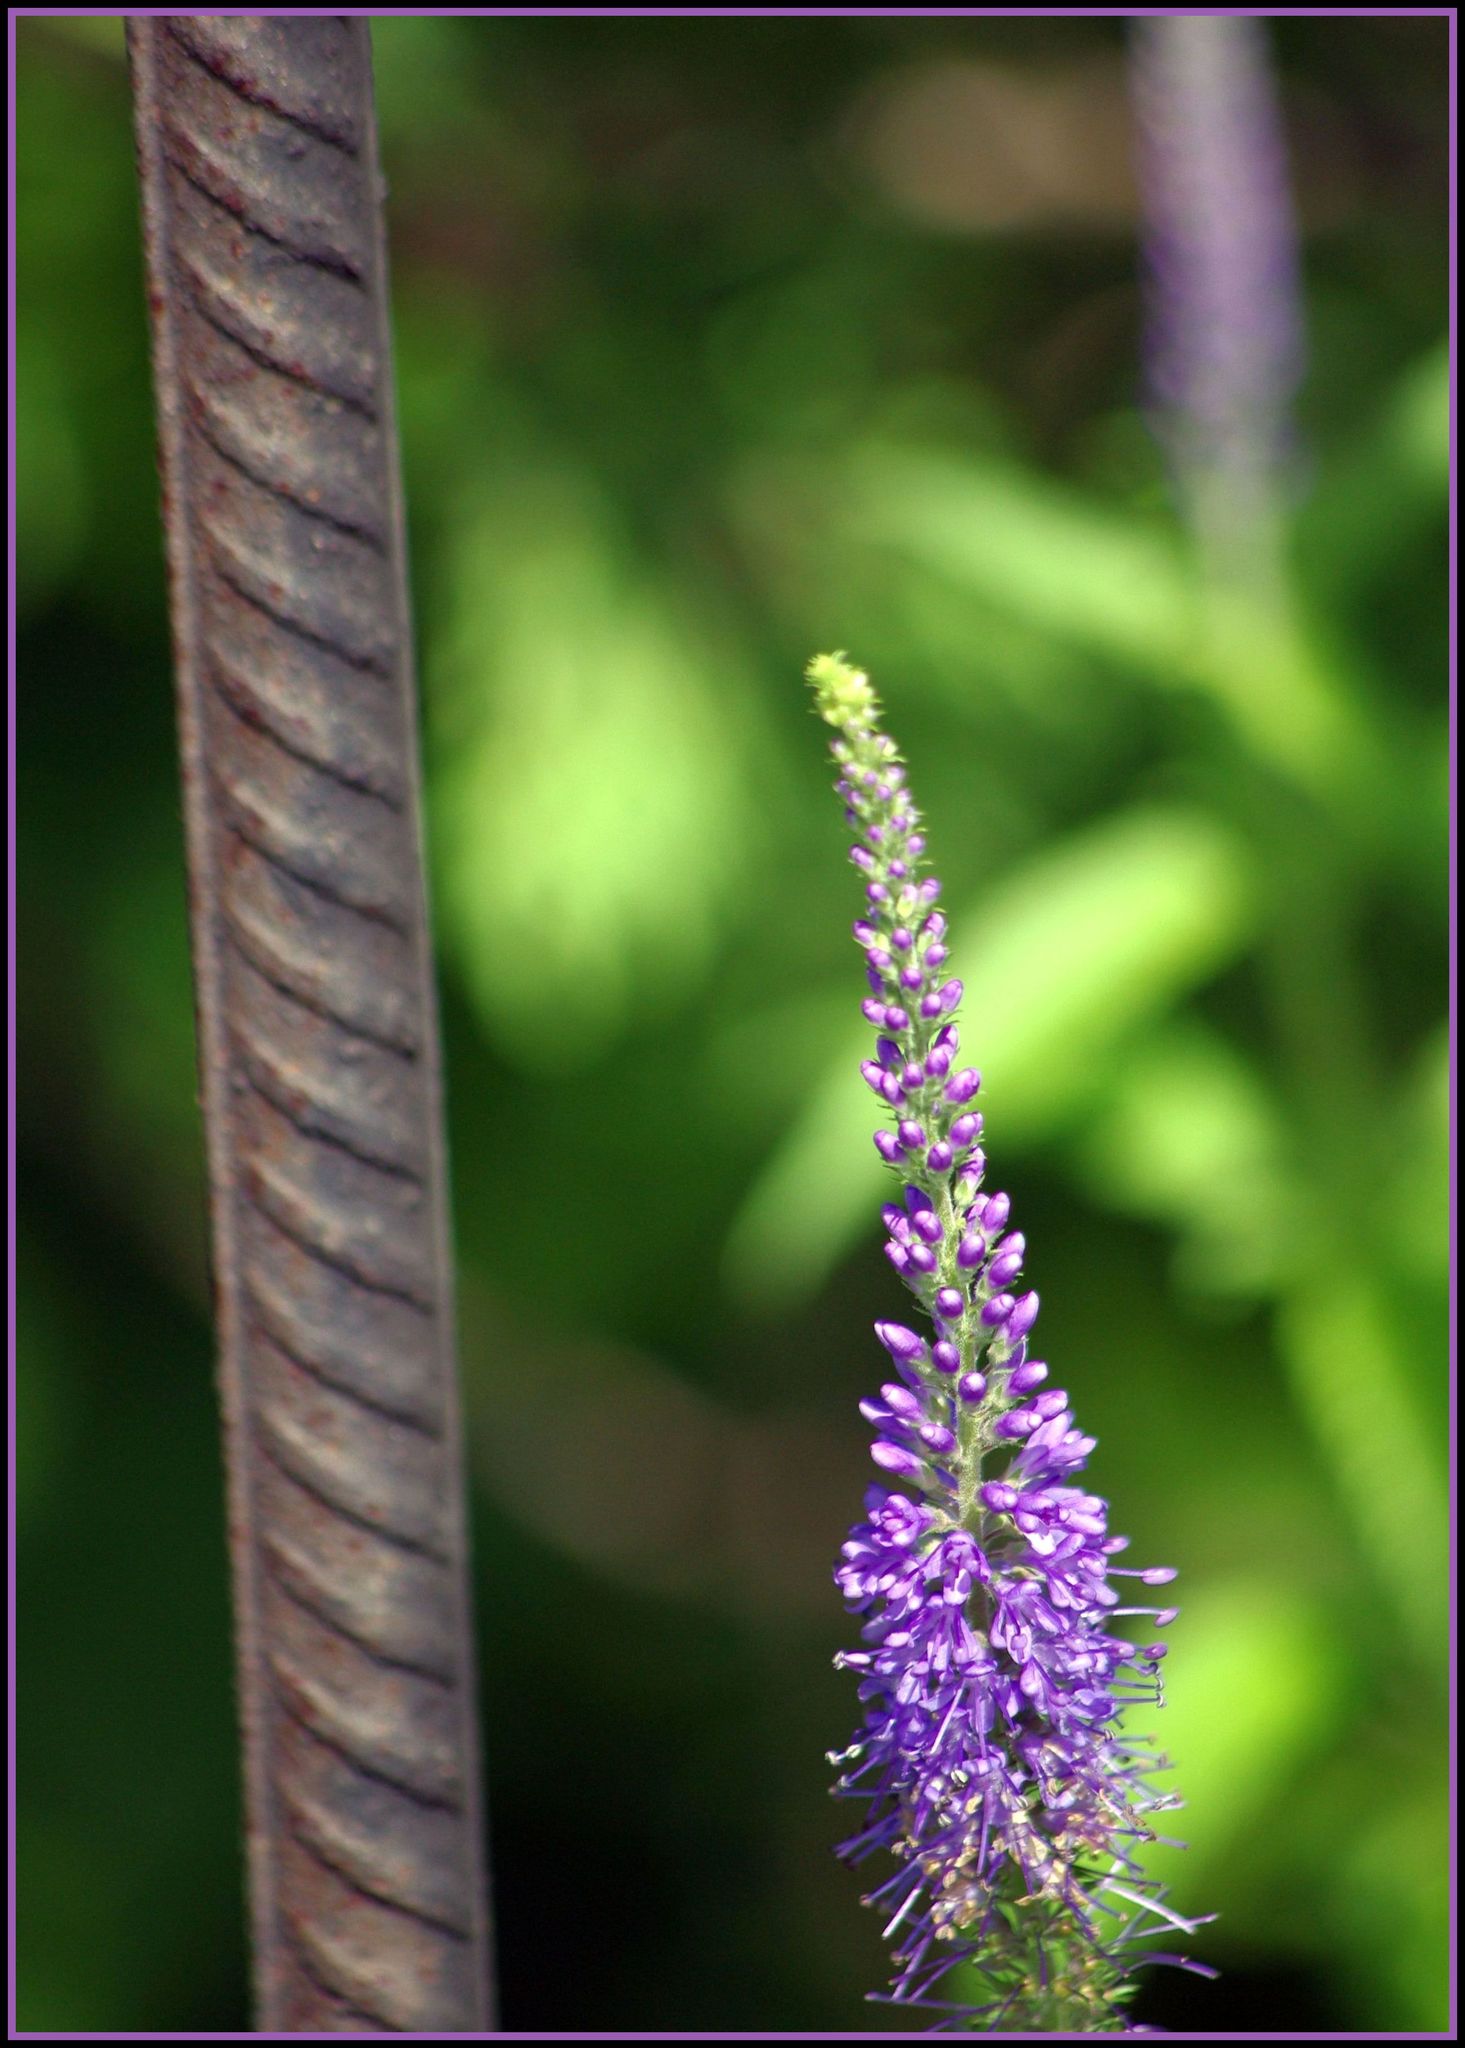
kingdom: Plantae
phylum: Tracheophyta
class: Magnoliopsida
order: Lamiales
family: Plantaginaceae
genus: Veronica
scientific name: Veronica longifolia
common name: Garden speedwell
